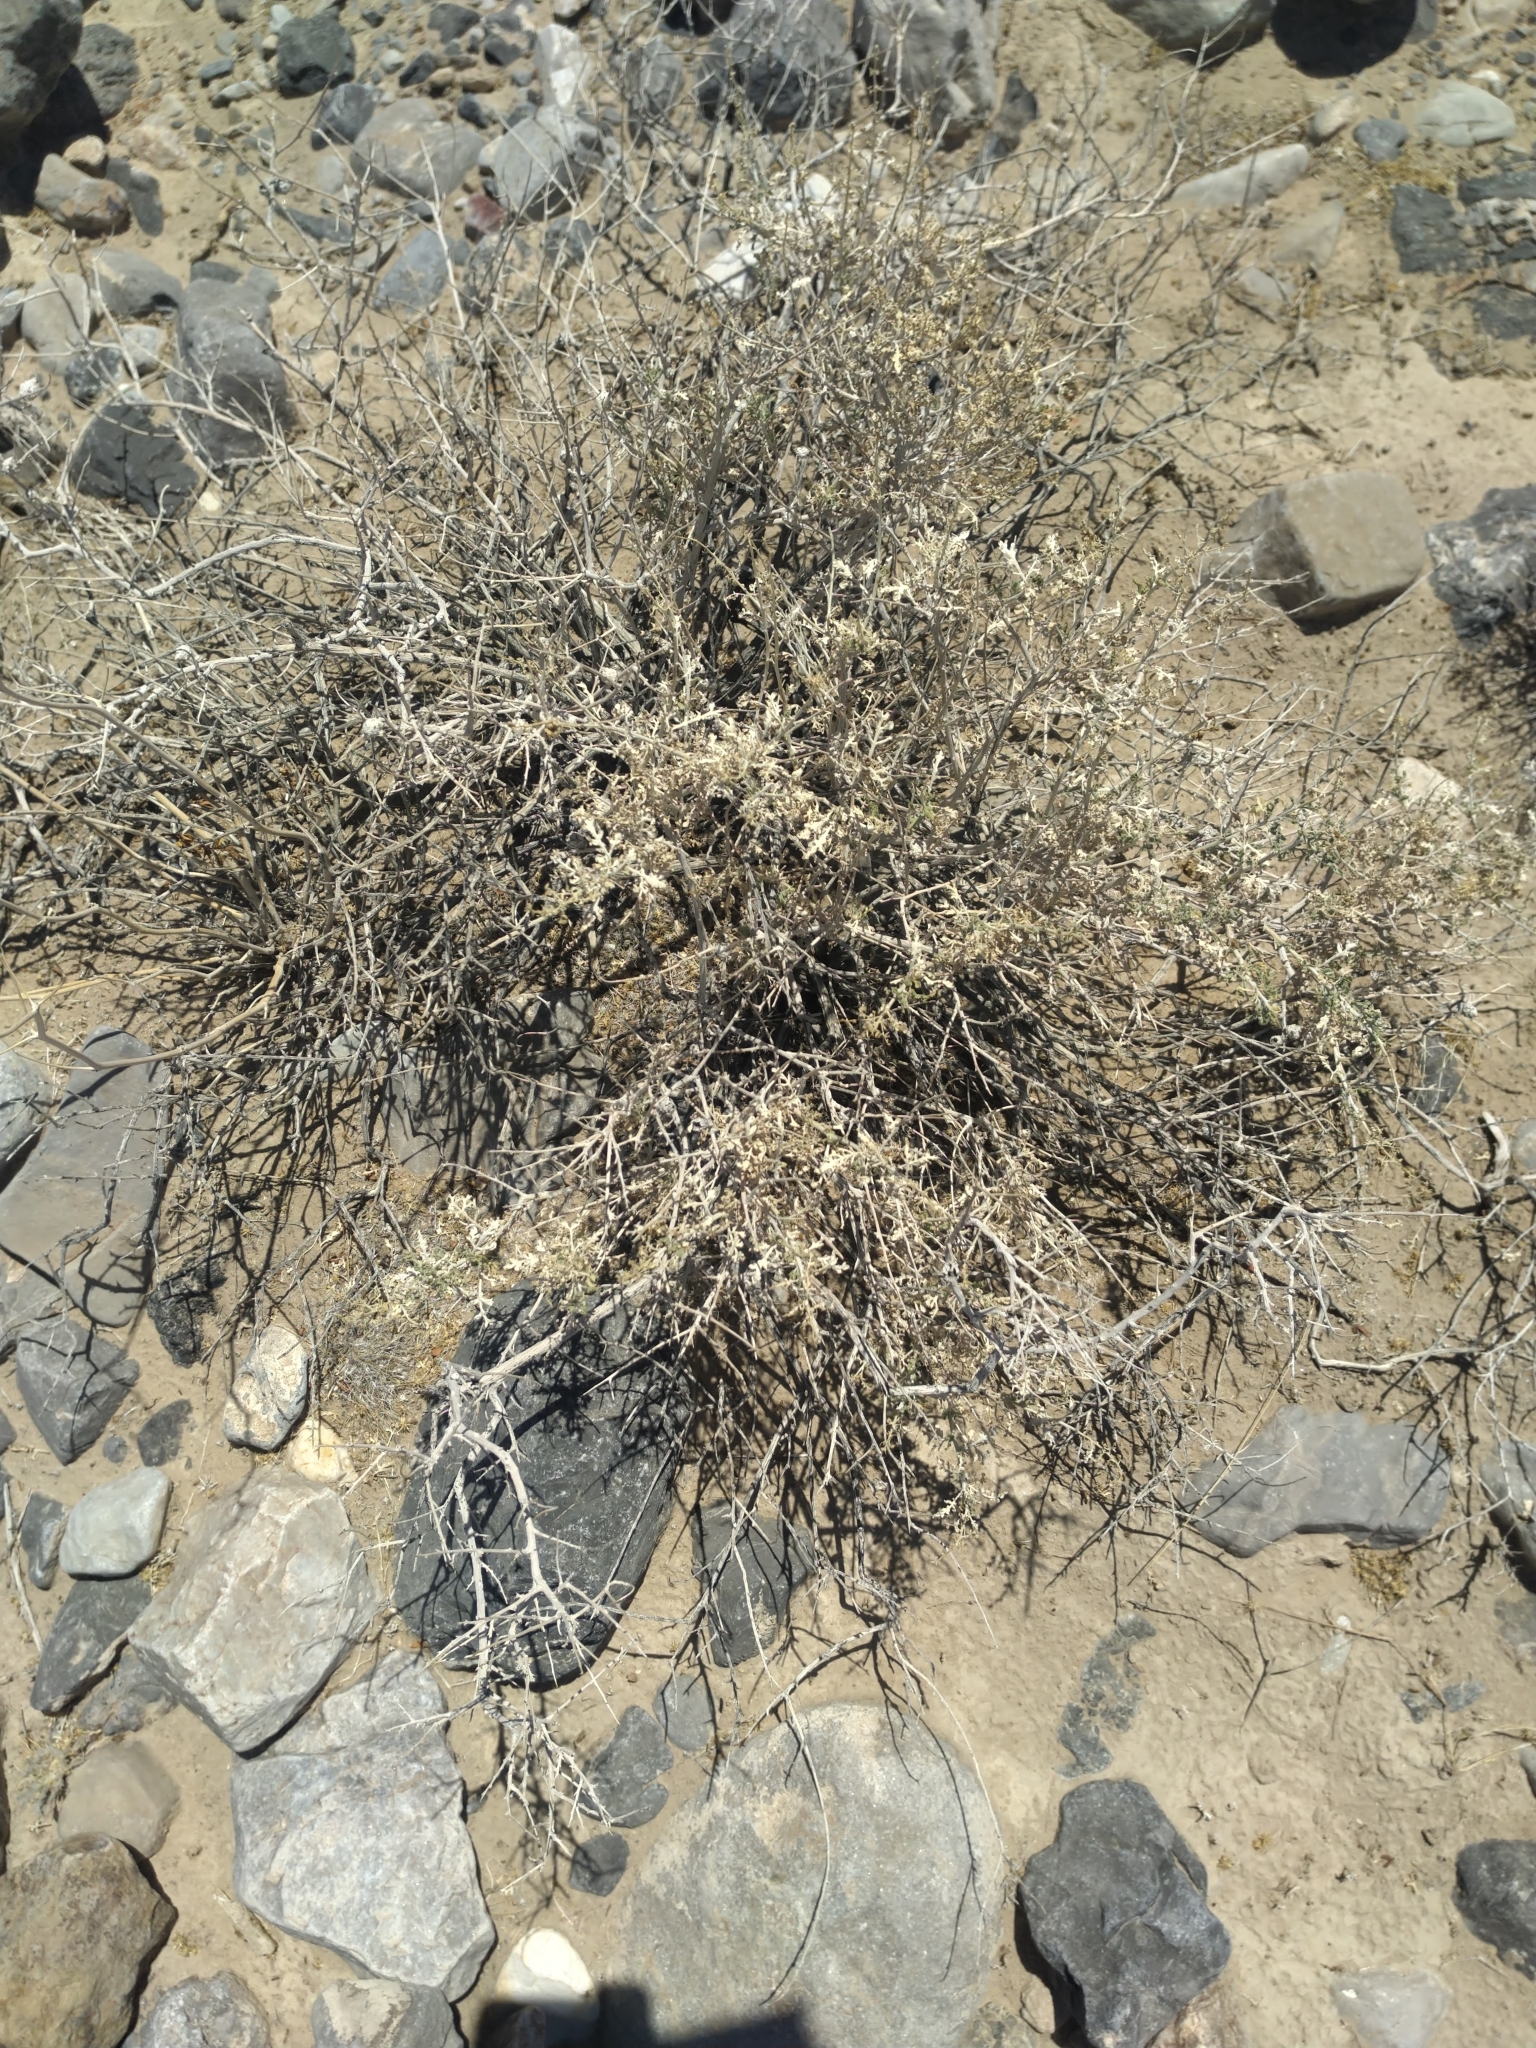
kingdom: Plantae
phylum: Tracheophyta
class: Magnoliopsida
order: Asterales
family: Asteraceae
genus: Ambrosia
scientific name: Ambrosia dumosa
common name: Bur-sage
